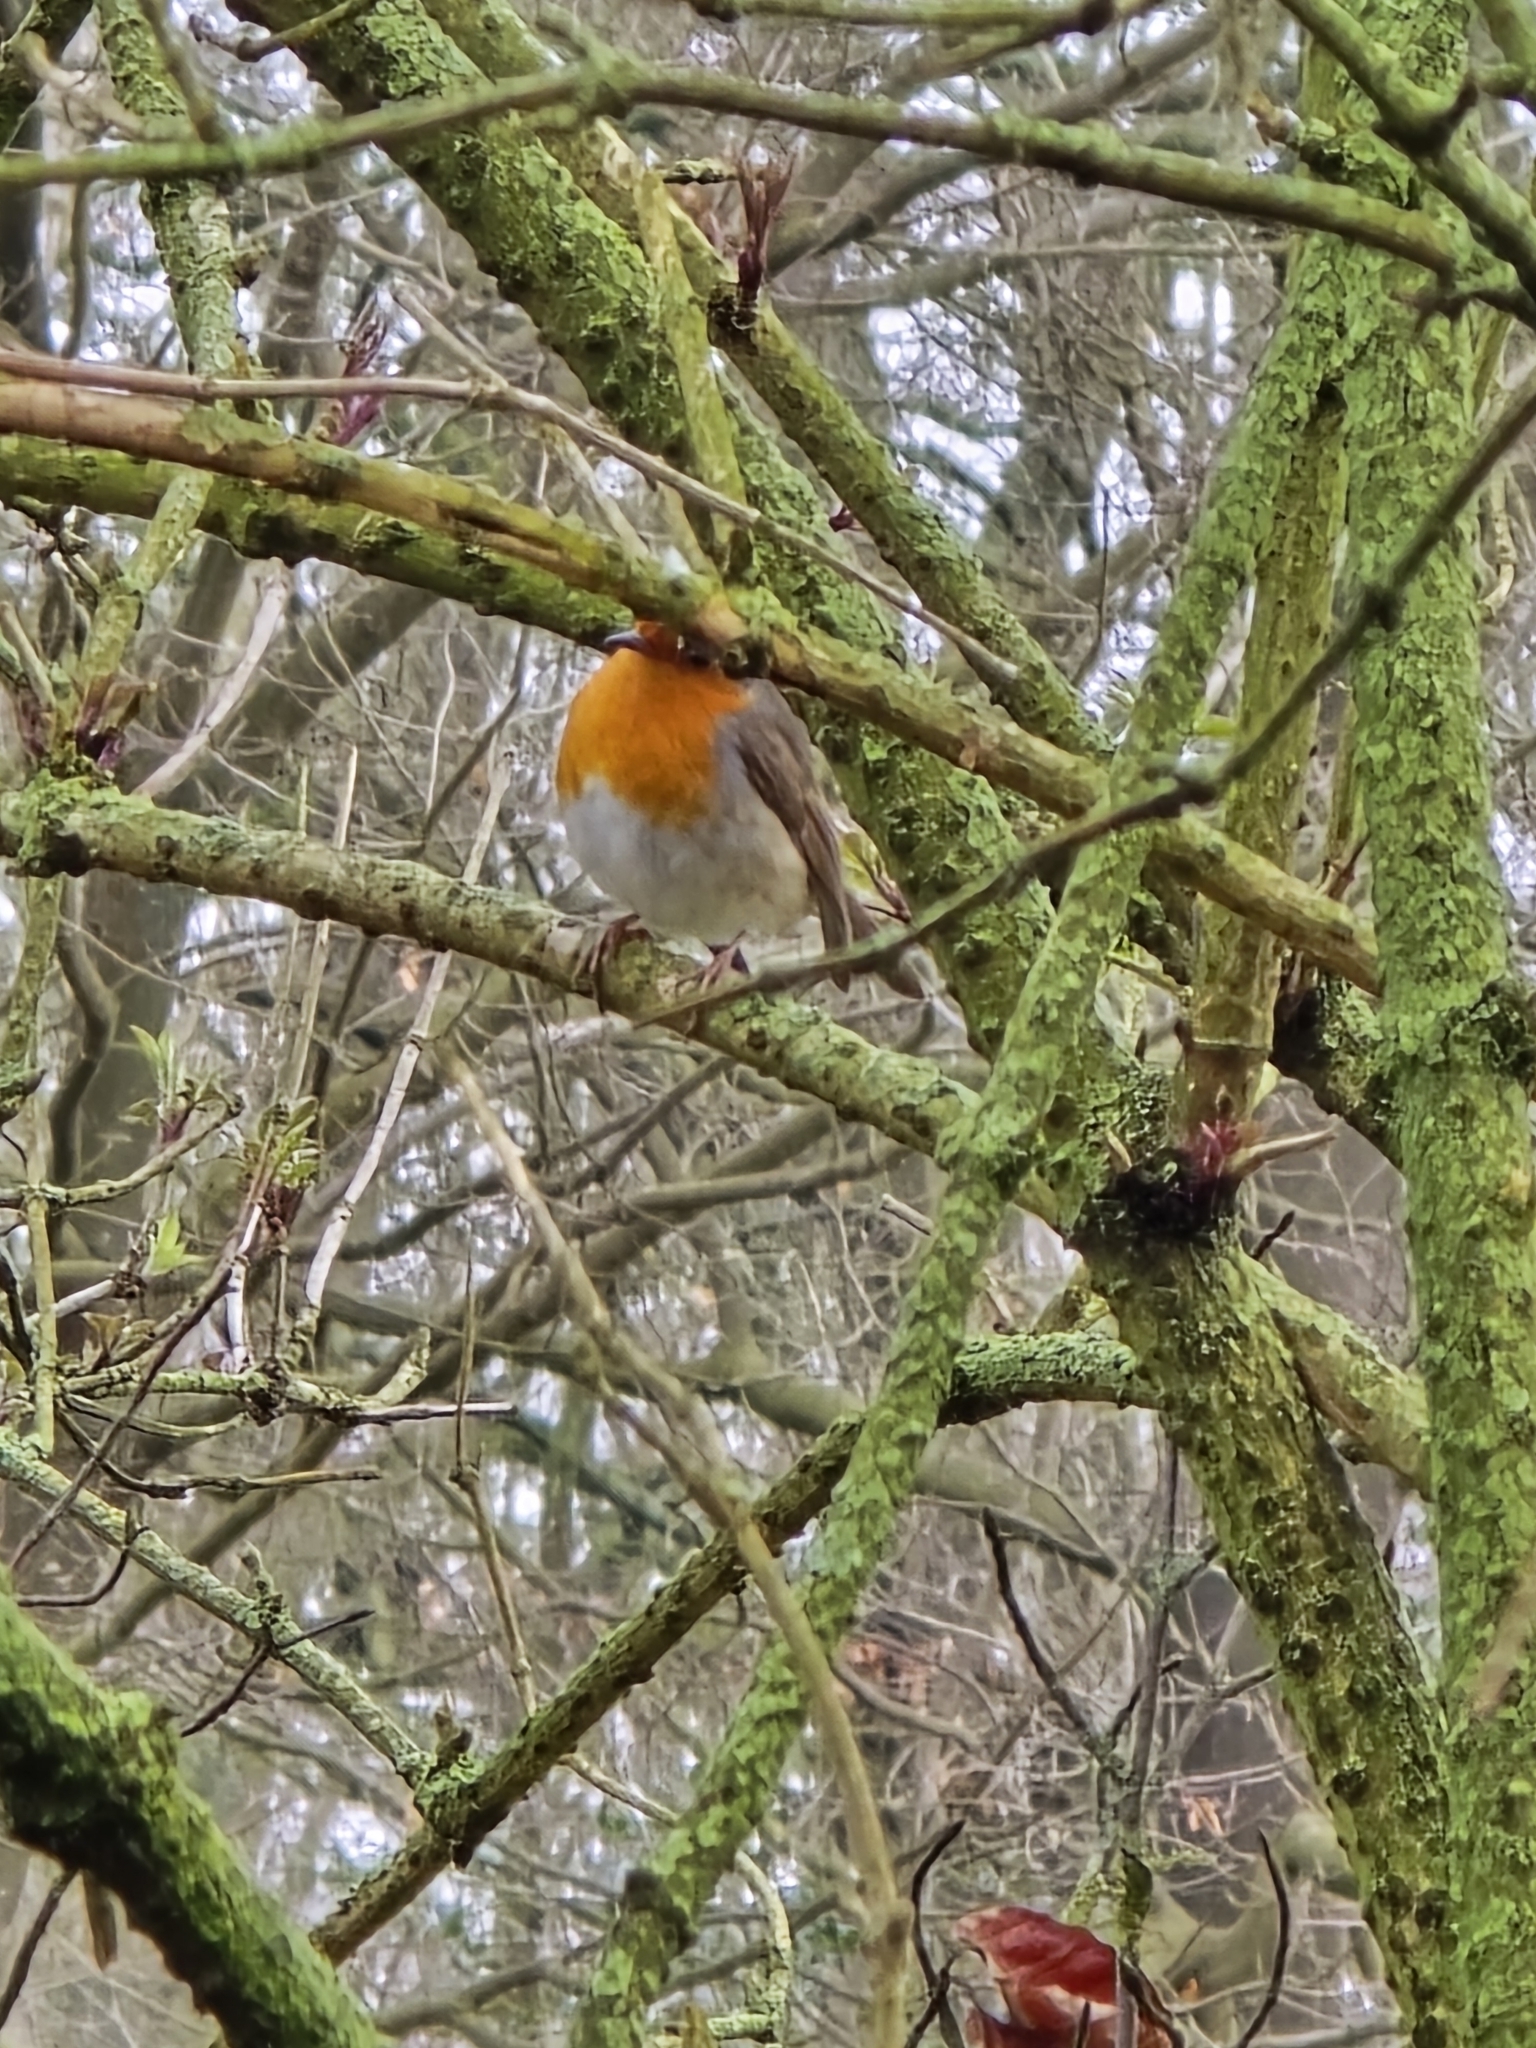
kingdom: Animalia
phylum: Chordata
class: Aves
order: Passeriformes
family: Muscicapidae
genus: Erithacus
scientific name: Erithacus rubecula
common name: European robin
